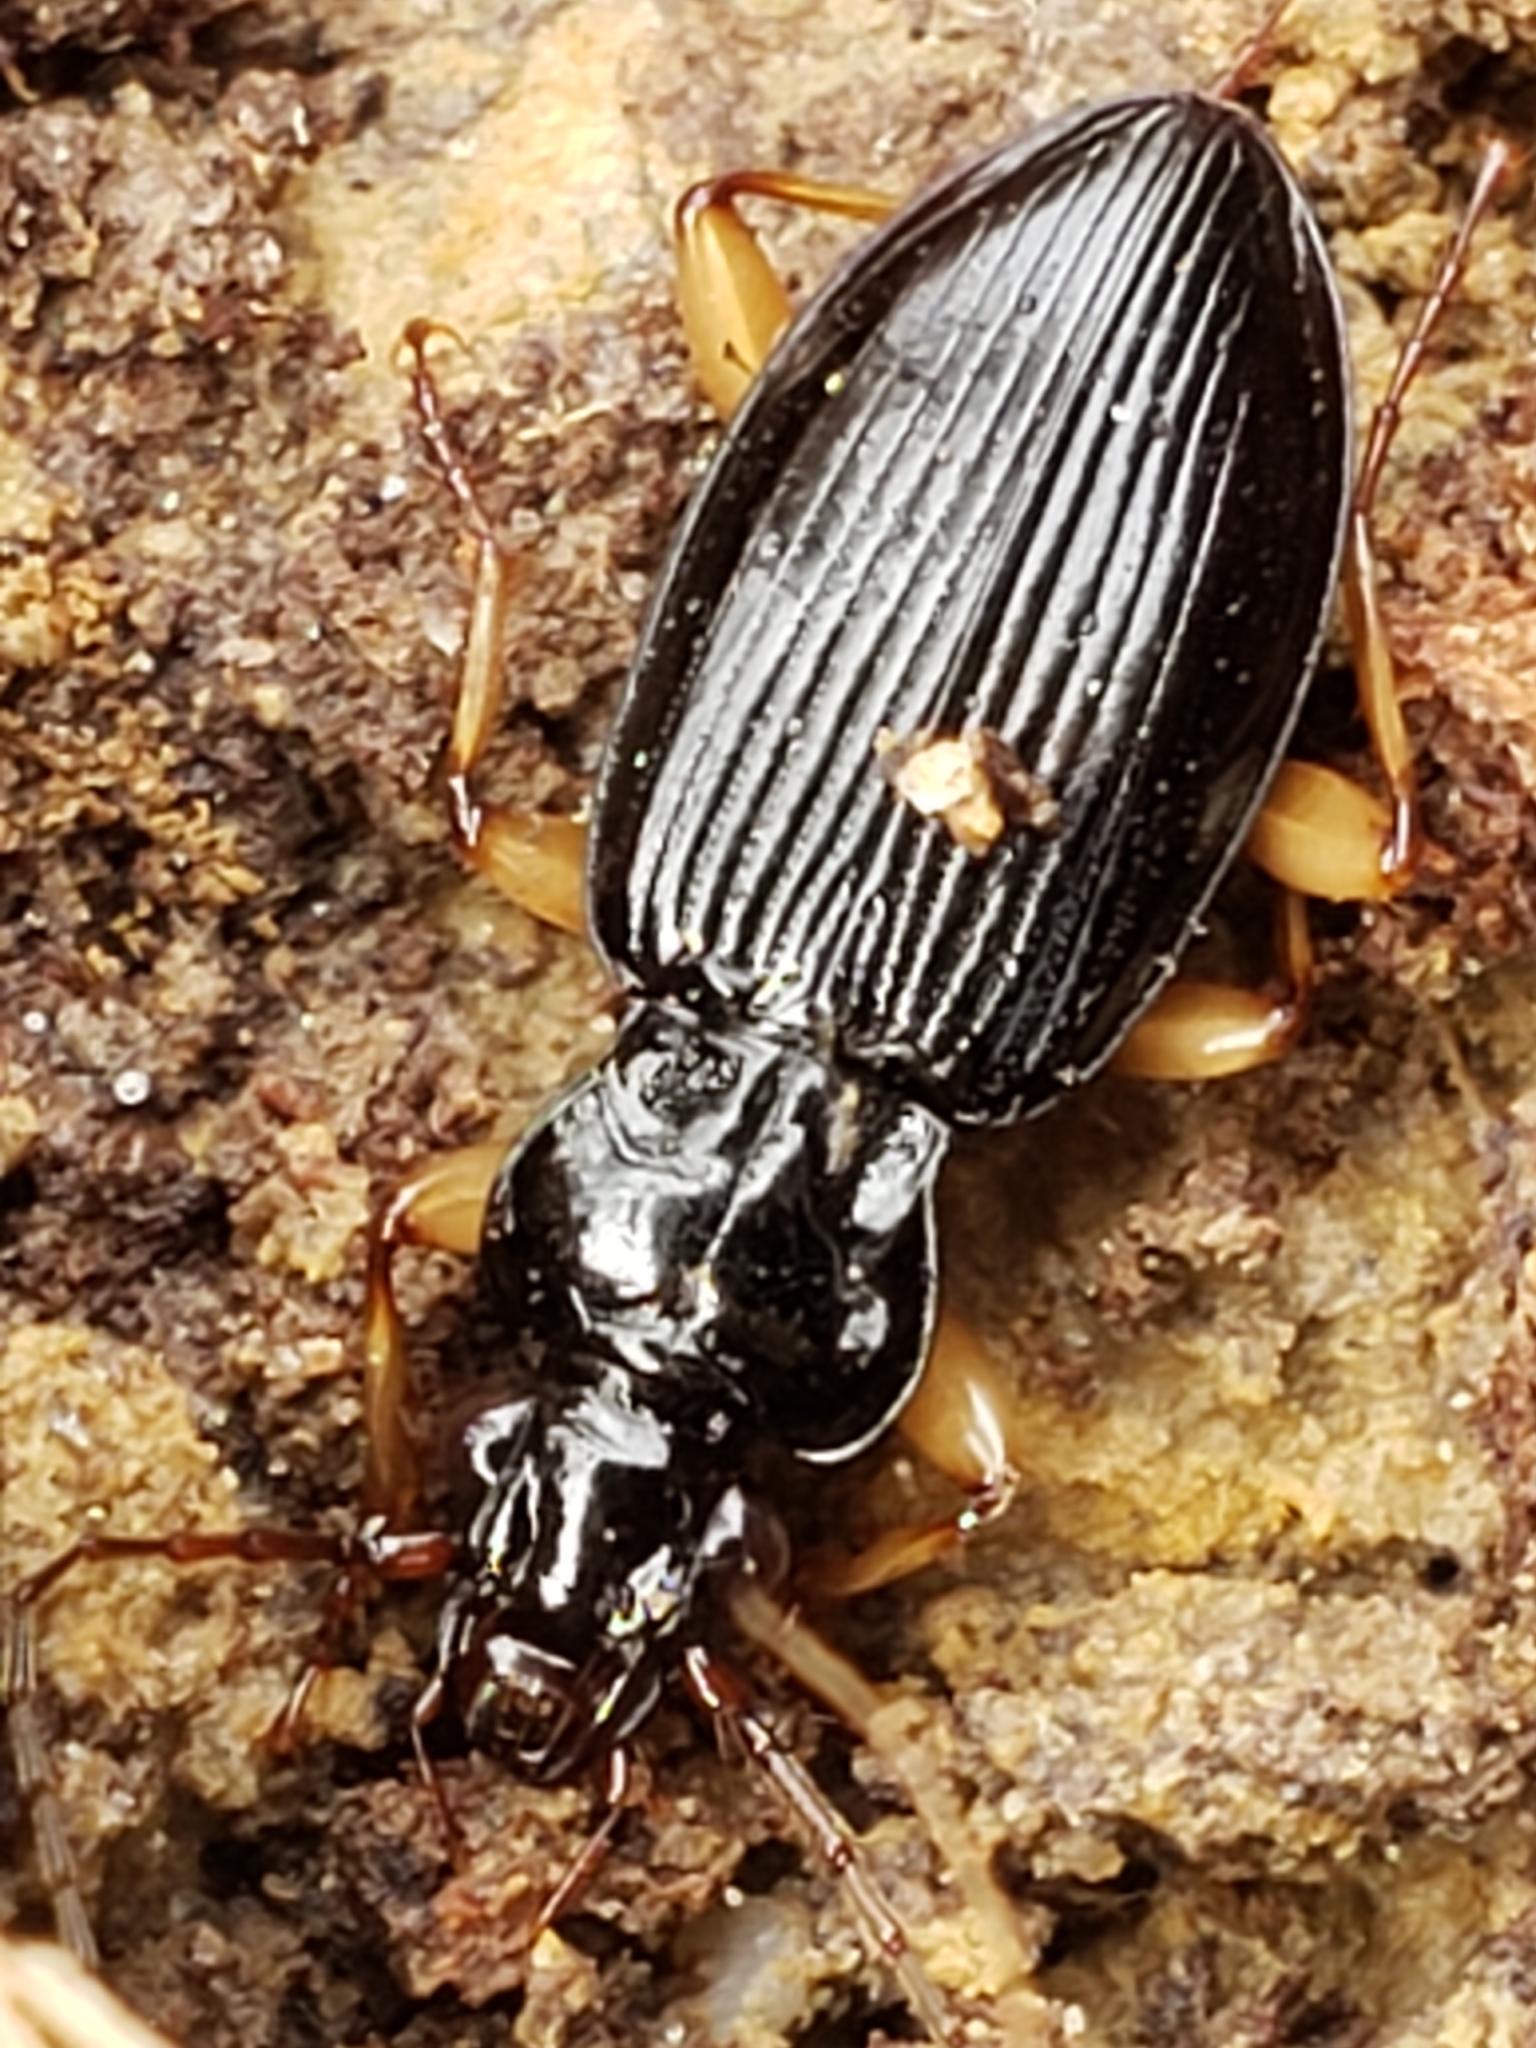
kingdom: Animalia
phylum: Arthropoda
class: Insecta
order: Coleoptera
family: Carabidae
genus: Patrobus
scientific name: Patrobus longicornis
